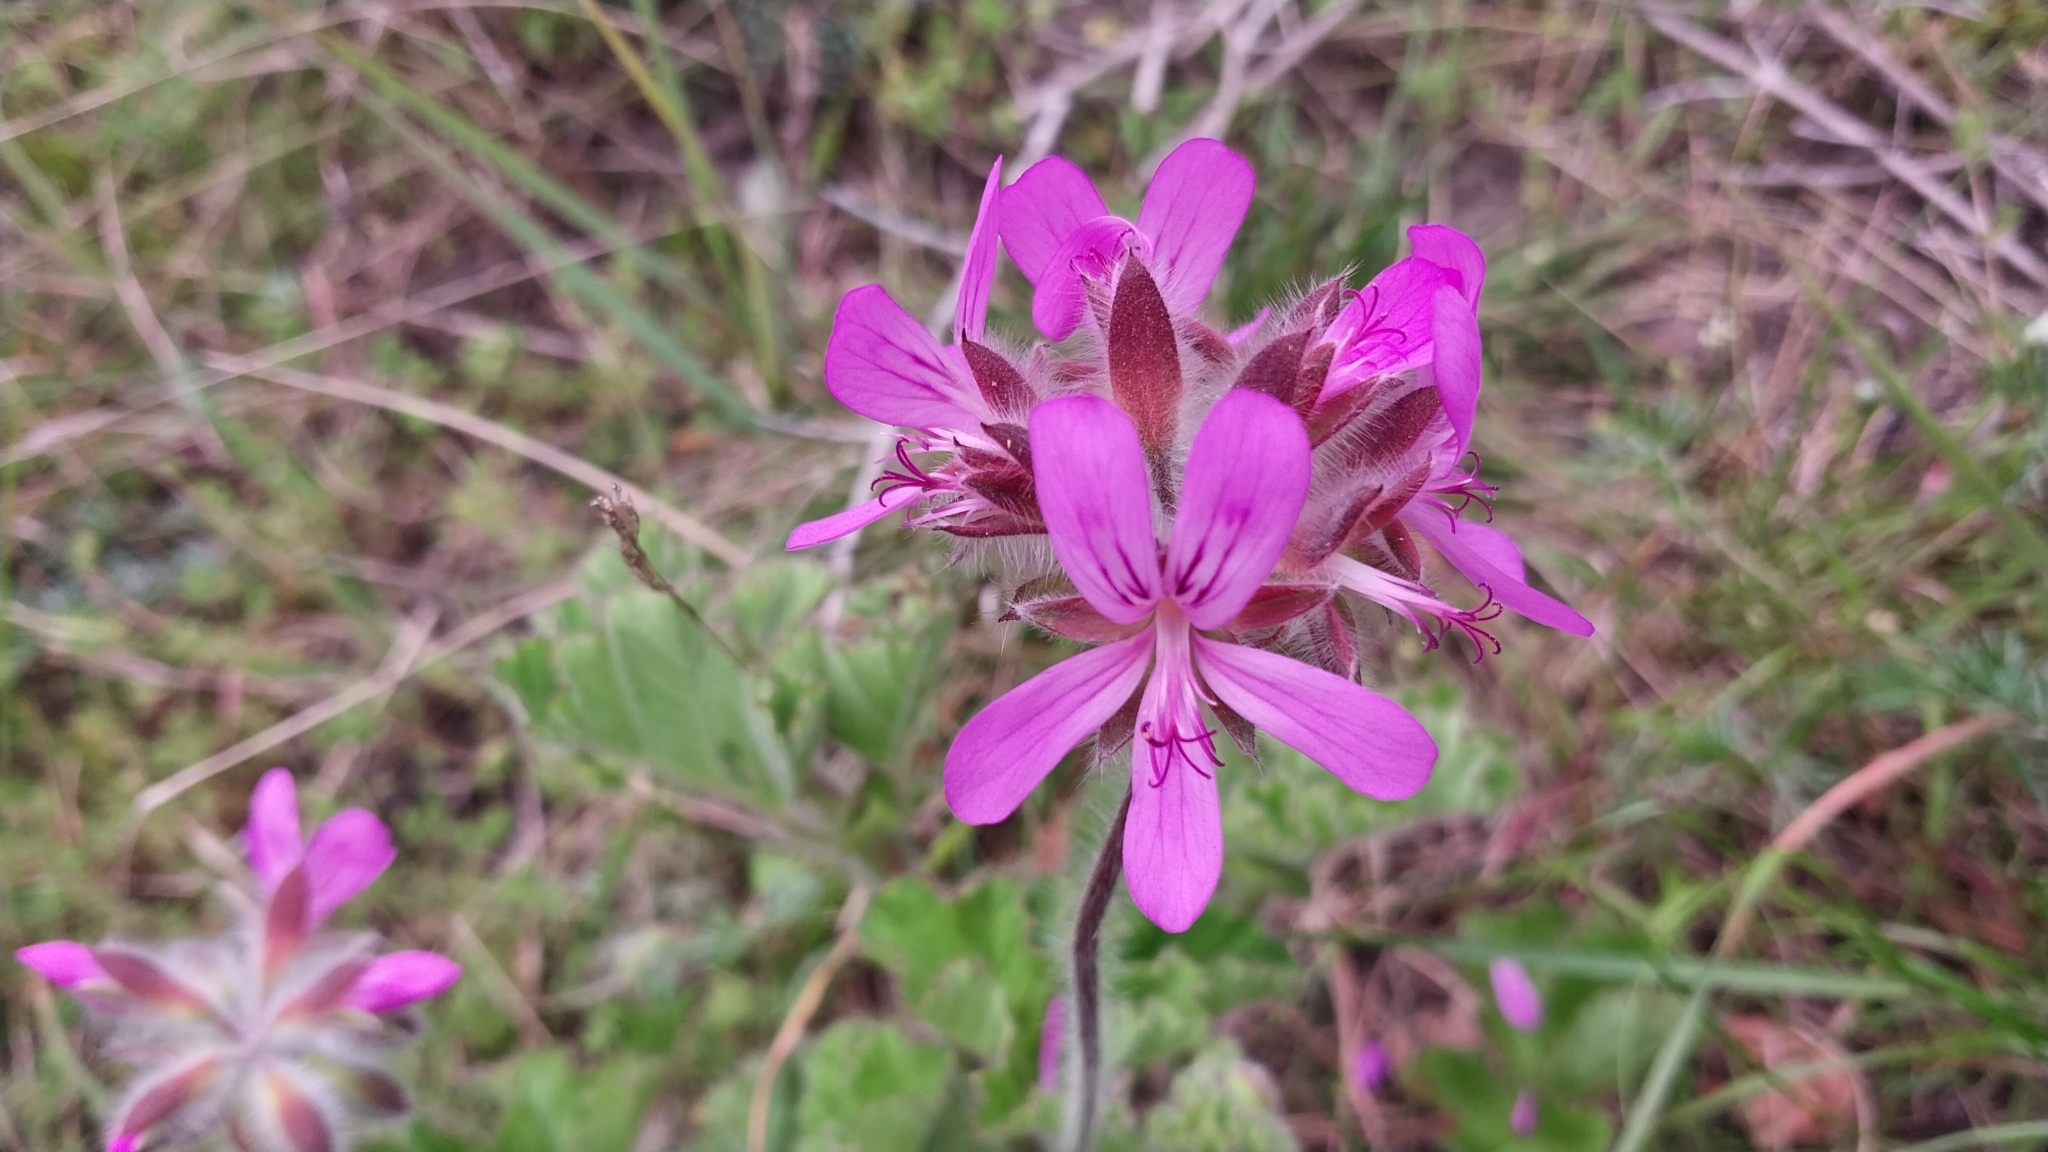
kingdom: Plantae
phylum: Tracheophyta
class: Magnoliopsida
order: Geraniales
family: Geraniaceae
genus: Pelargonium
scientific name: Pelargonium capitatum
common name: Rose scented geranium
